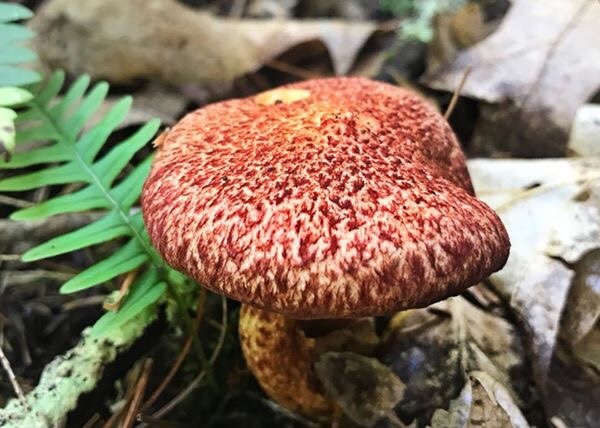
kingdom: Fungi
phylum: Basidiomycota
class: Agaricomycetes
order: Boletales
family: Suillaceae
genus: Suillus
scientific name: Suillus spraguei
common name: Painted suillus
